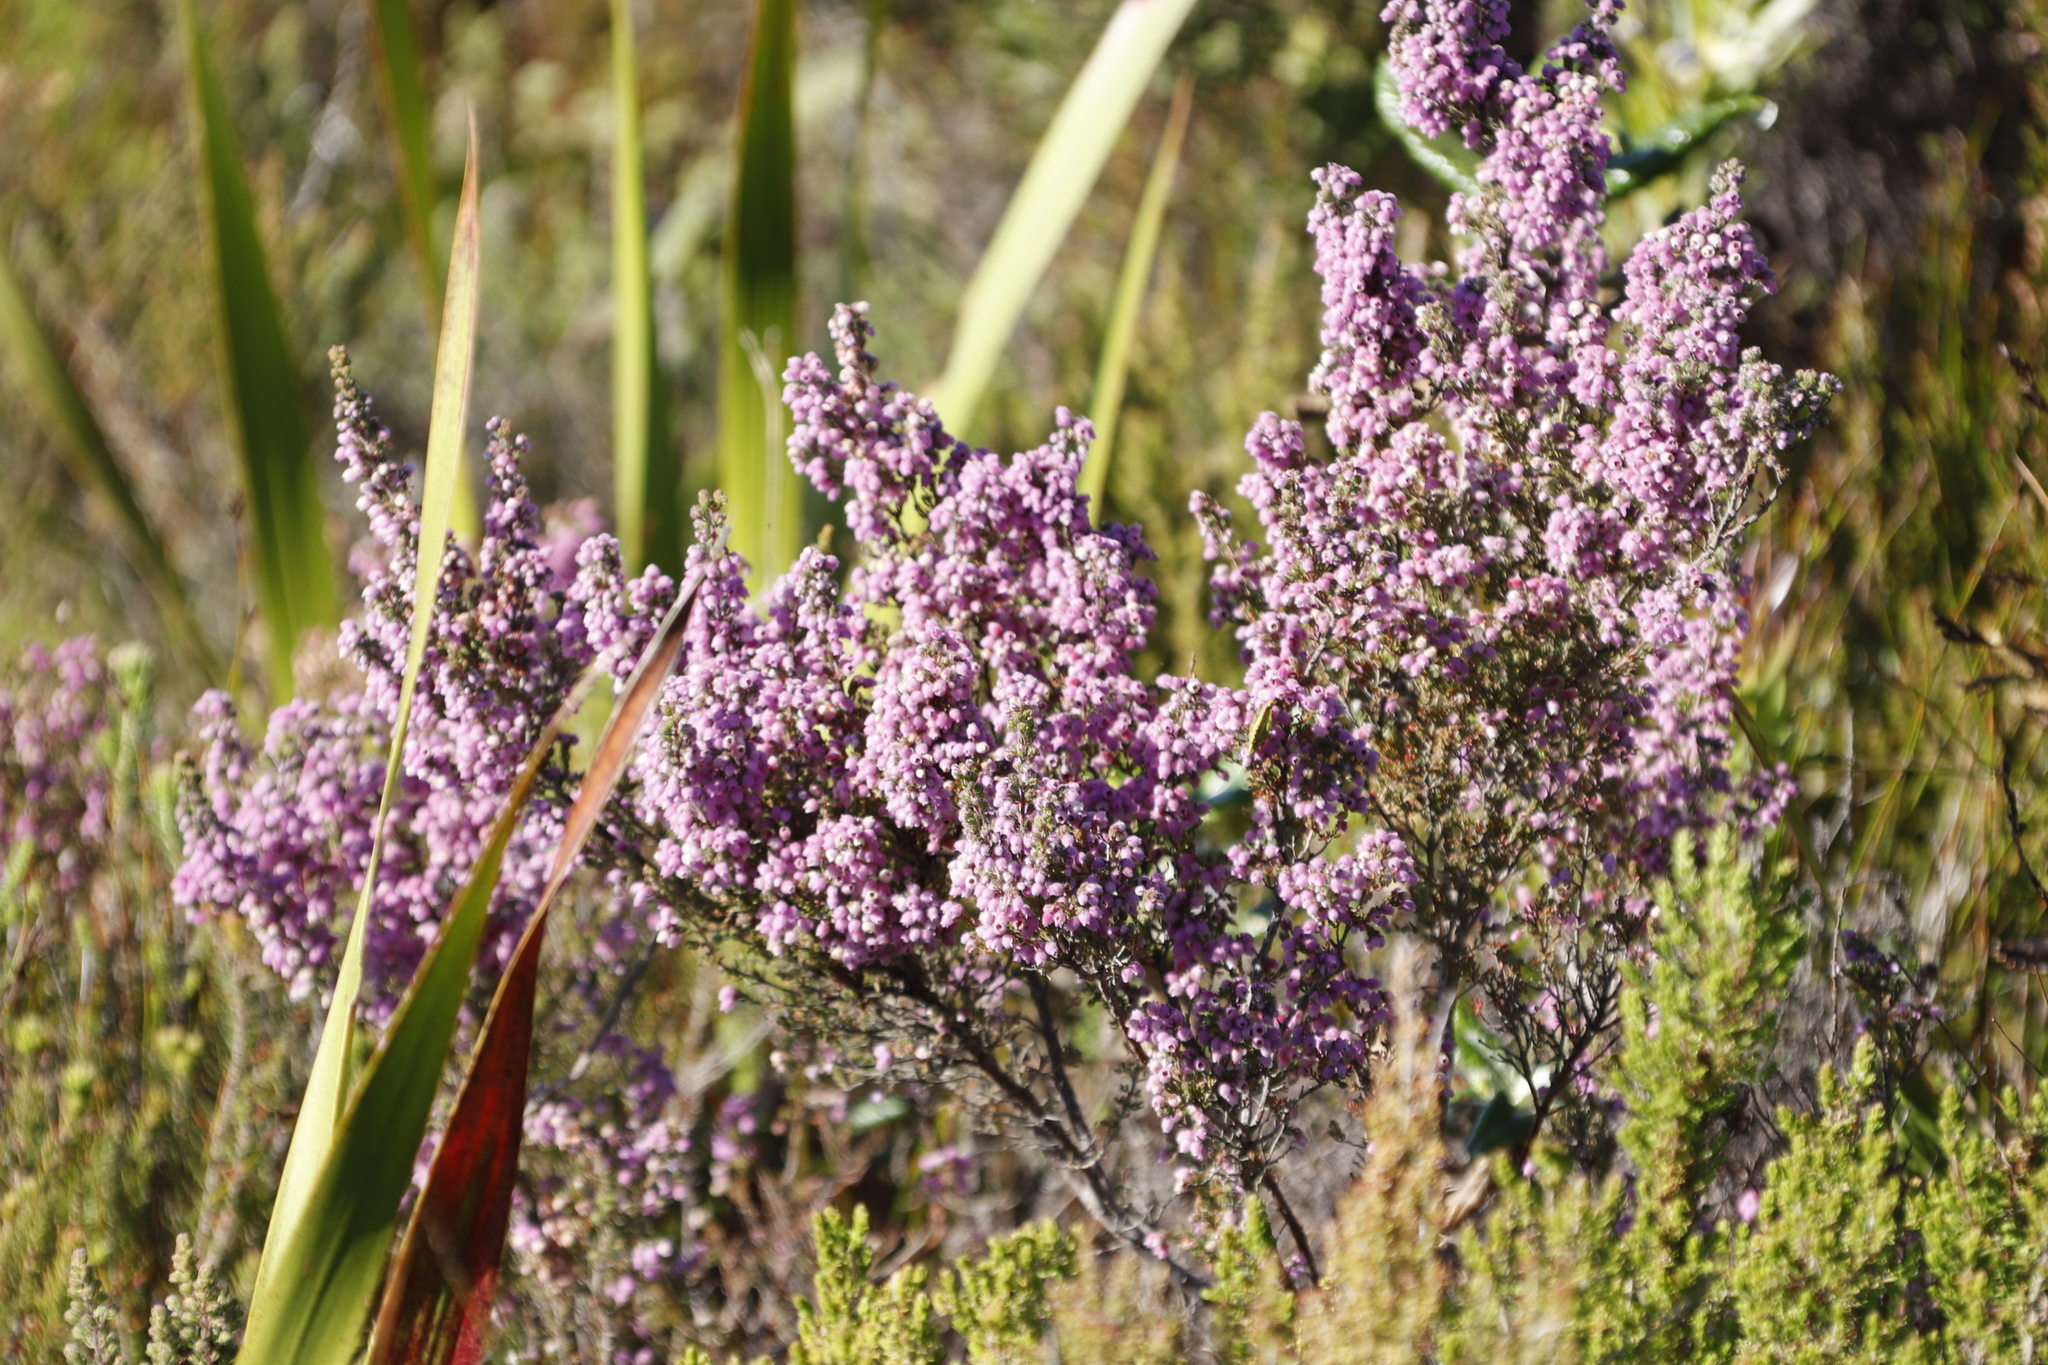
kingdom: Plantae
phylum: Tracheophyta
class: Magnoliopsida
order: Ericales
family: Ericaceae
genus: Erica
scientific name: Erica hirtiflora
